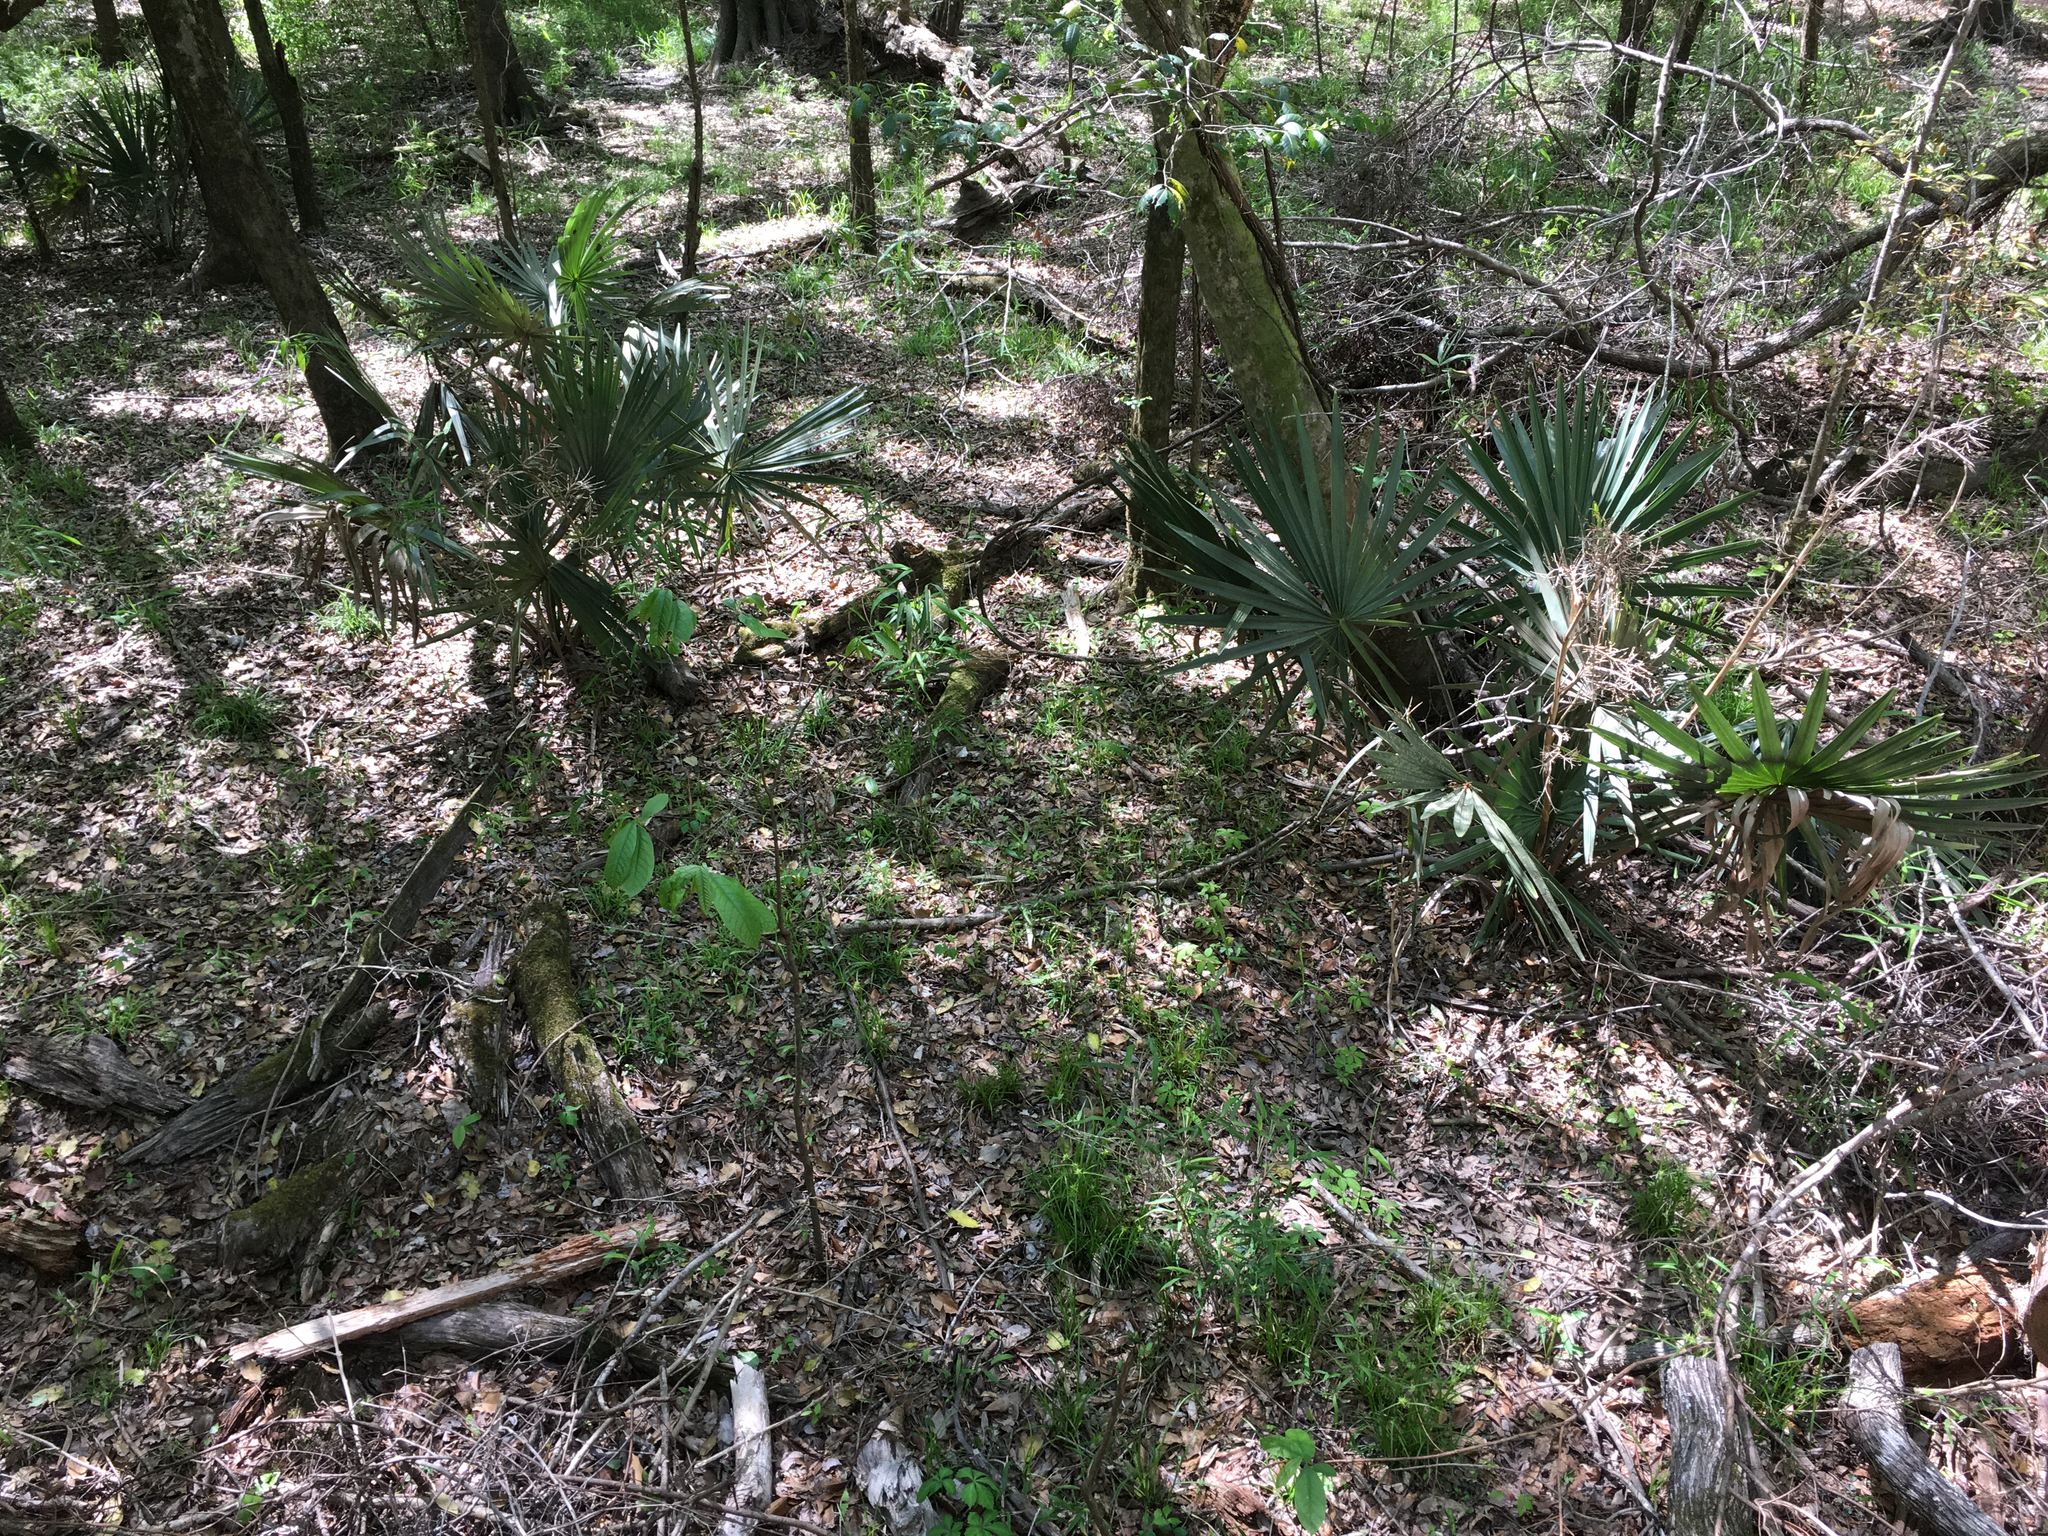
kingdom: Plantae
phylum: Tracheophyta
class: Liliopsida
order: Arecales
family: Arecaceae
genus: Sabal
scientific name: Sabal minor
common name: Dwarf palmetto
